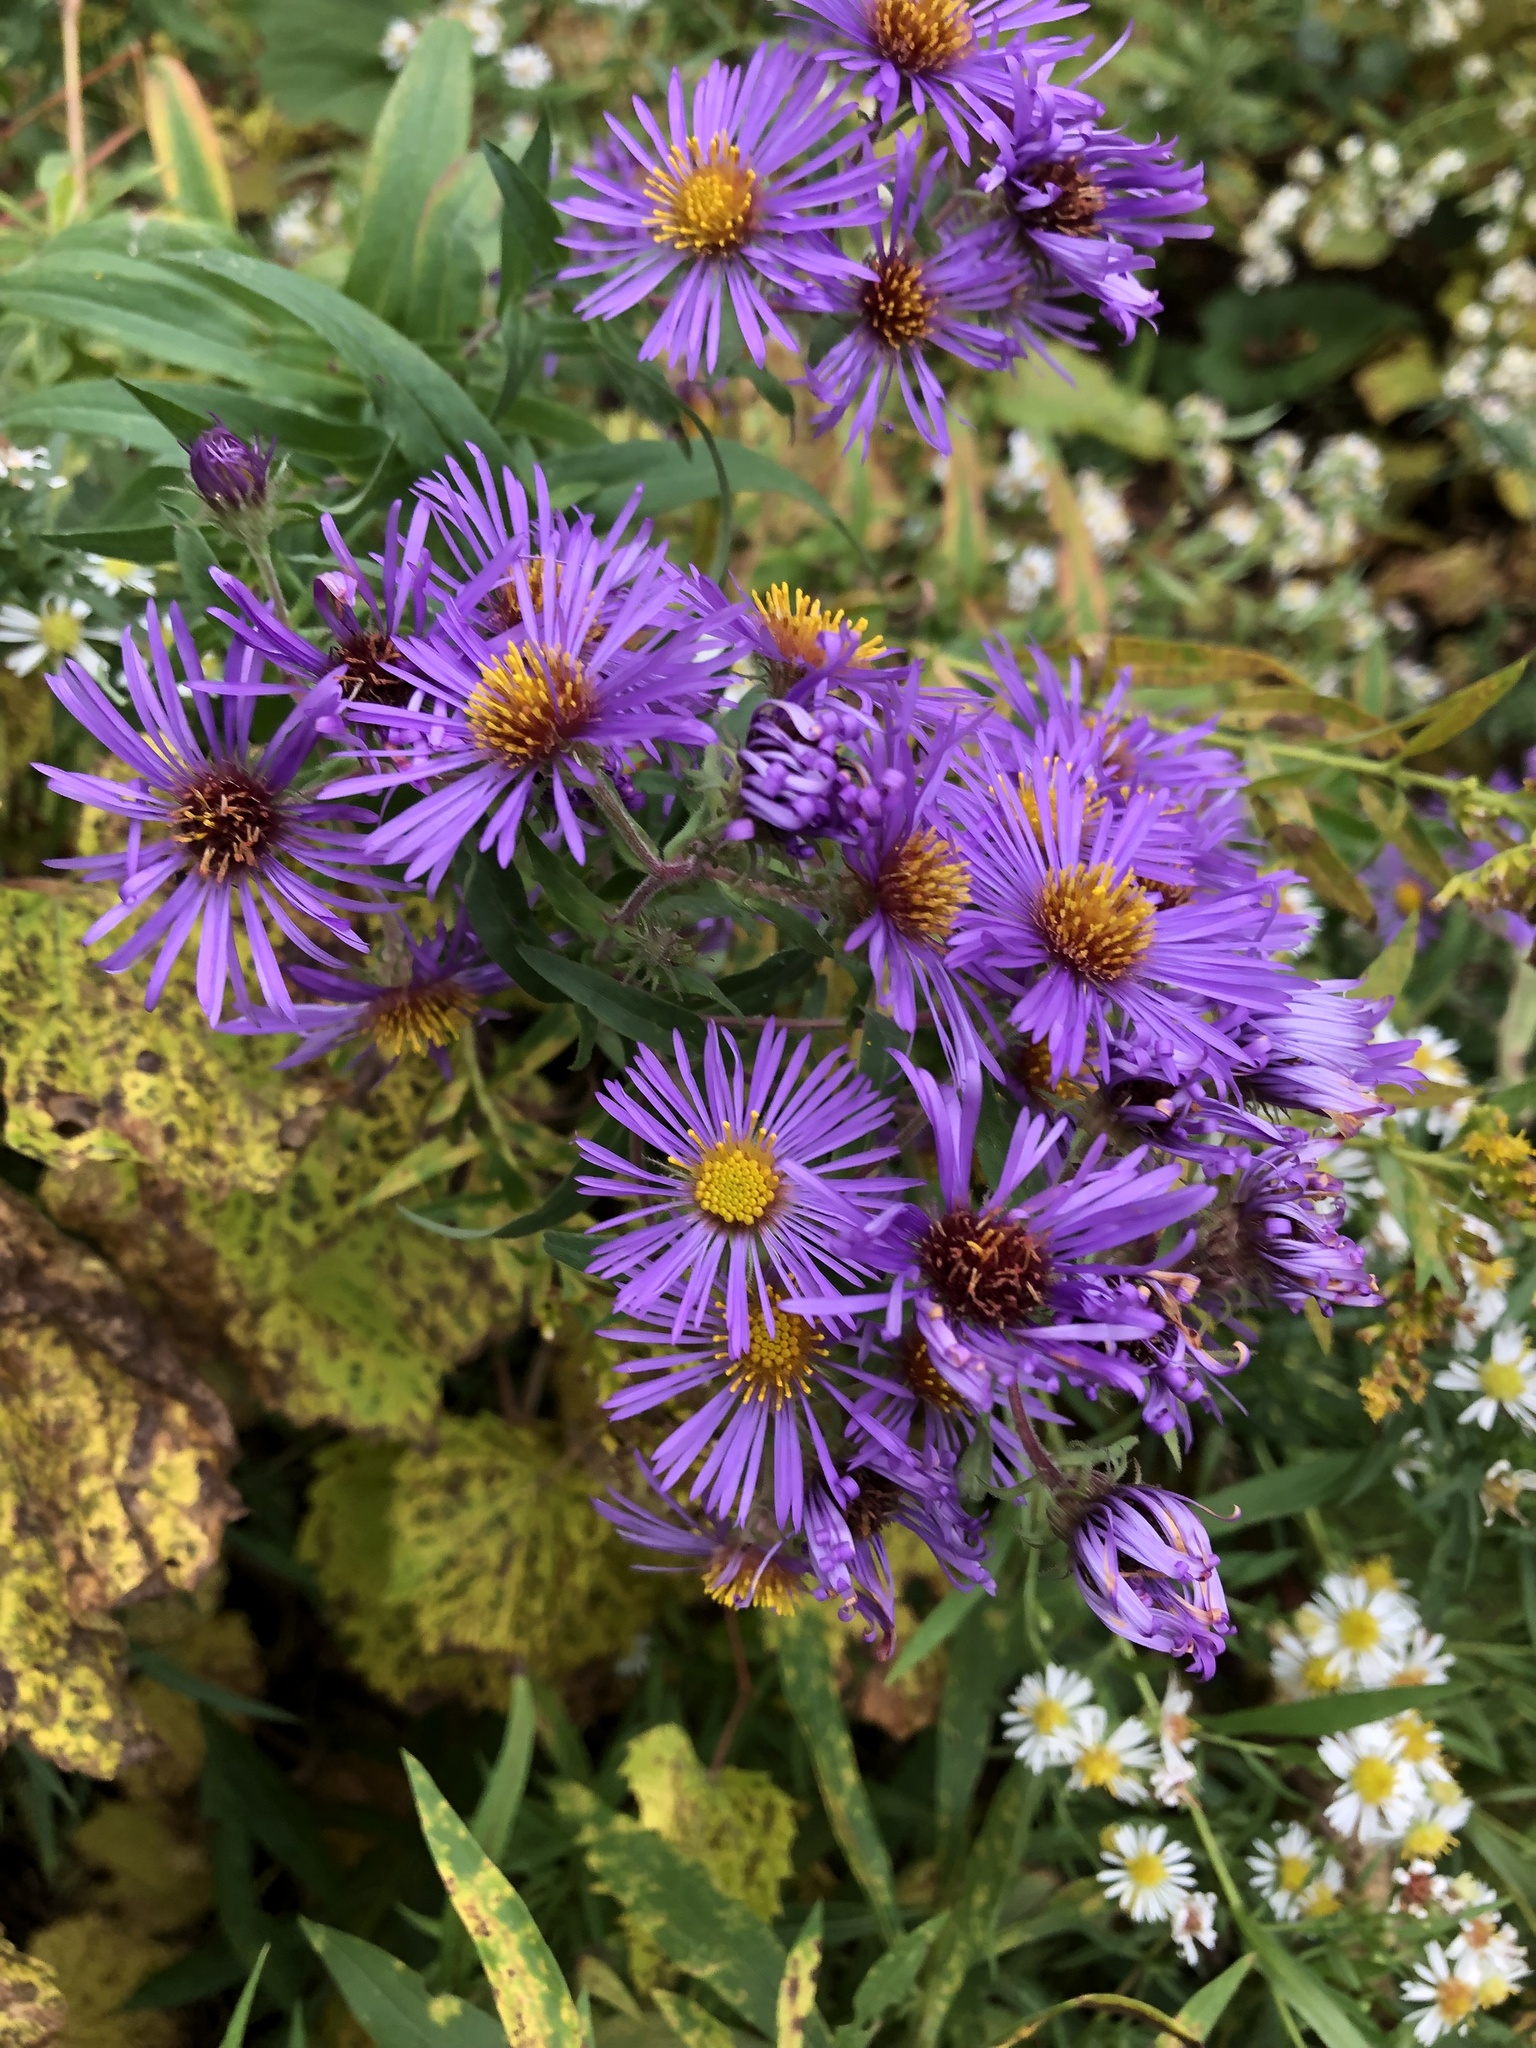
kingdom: Plantae
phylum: Tracheophyta
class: Magnoliopsida
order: Asterales
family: Asteraceae
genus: Symphyotrichum
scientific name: Symphyotrichum novae-angliae
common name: Michaelmas daisy
